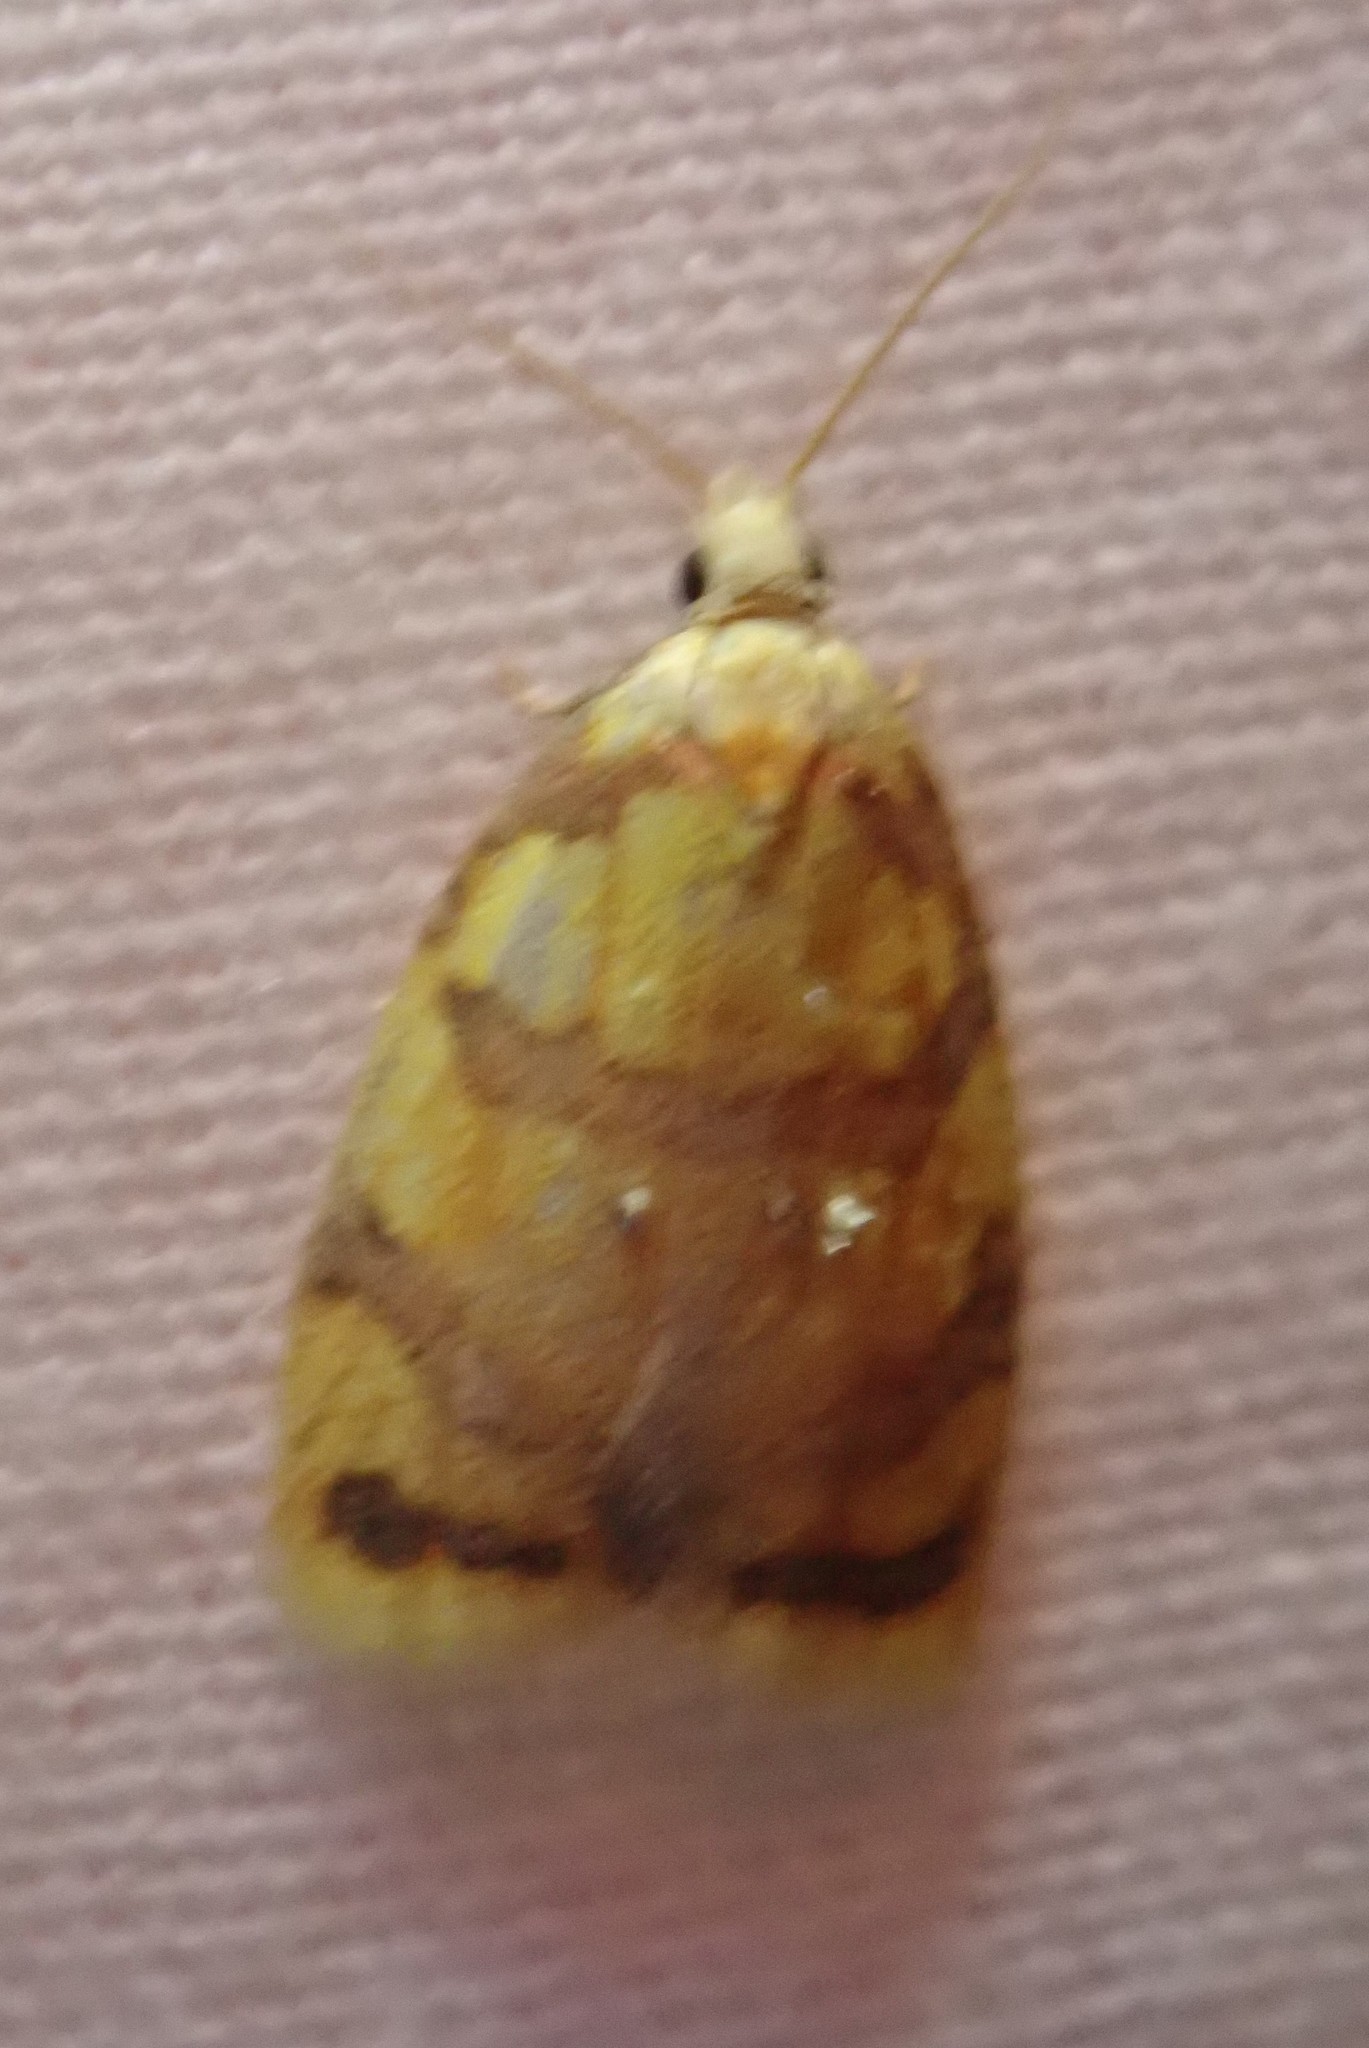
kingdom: Animalia
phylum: Arthropoda
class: Insecta
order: Lepidoptera
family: Tortricidae
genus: Acleris
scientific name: Acleris albicomana
